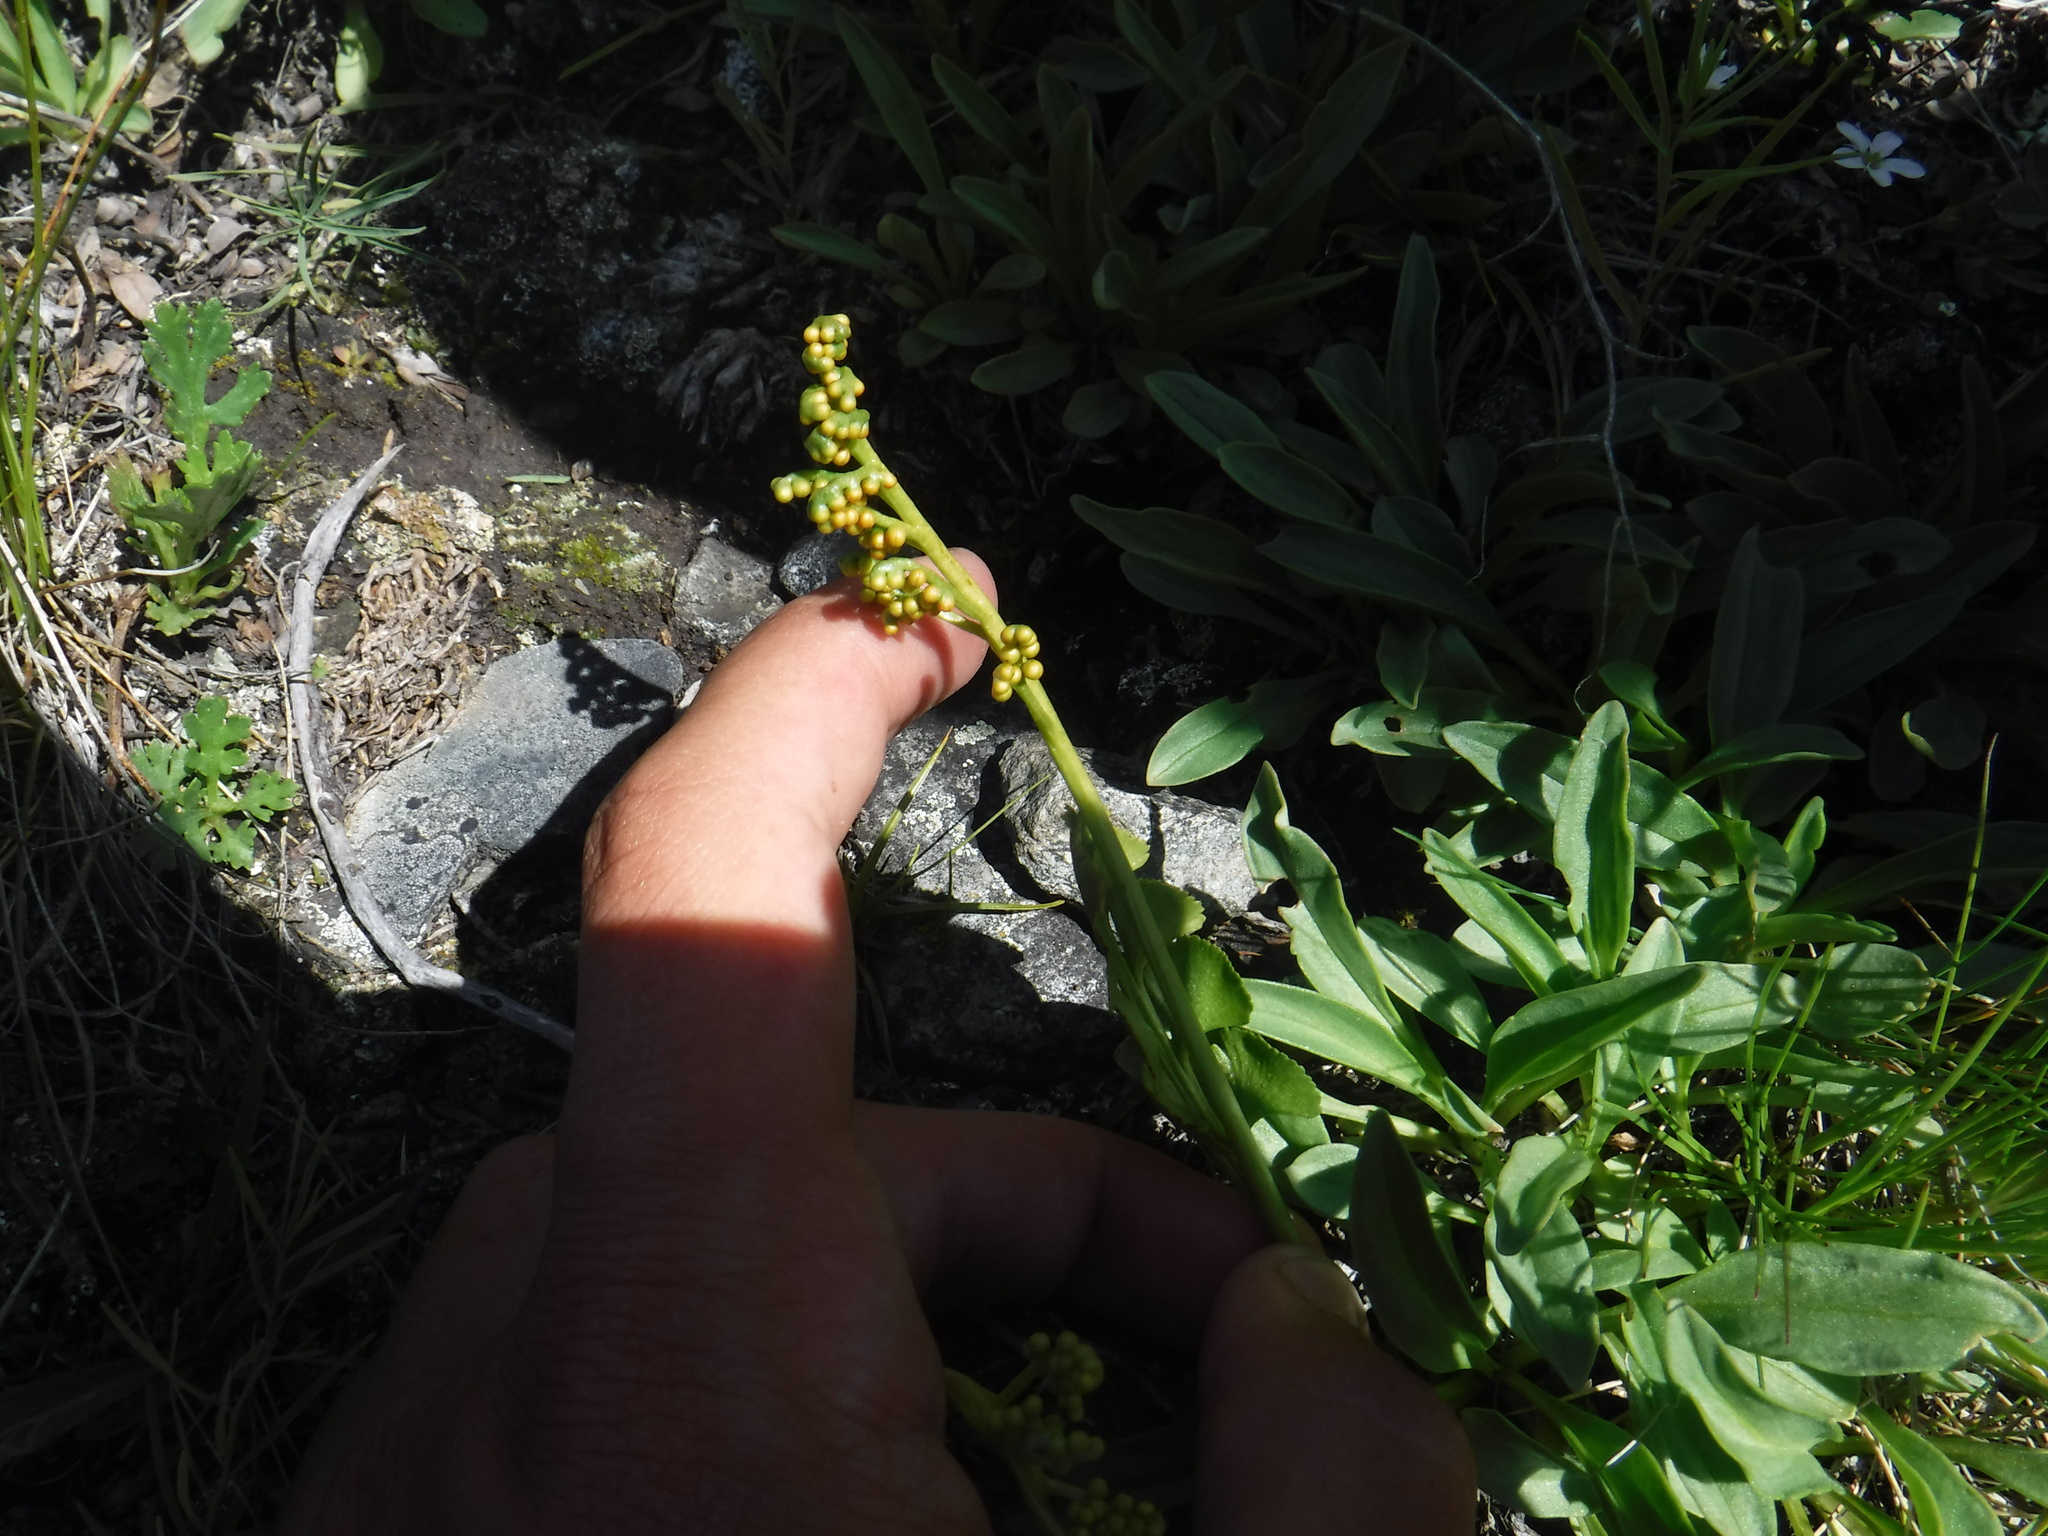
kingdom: Plantae
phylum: Tracheophyta
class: Polypodiopsida
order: Ophioglossales
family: Ophioglossaceae
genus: Botrychium
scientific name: Botrychium lunaria
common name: Moonwort
